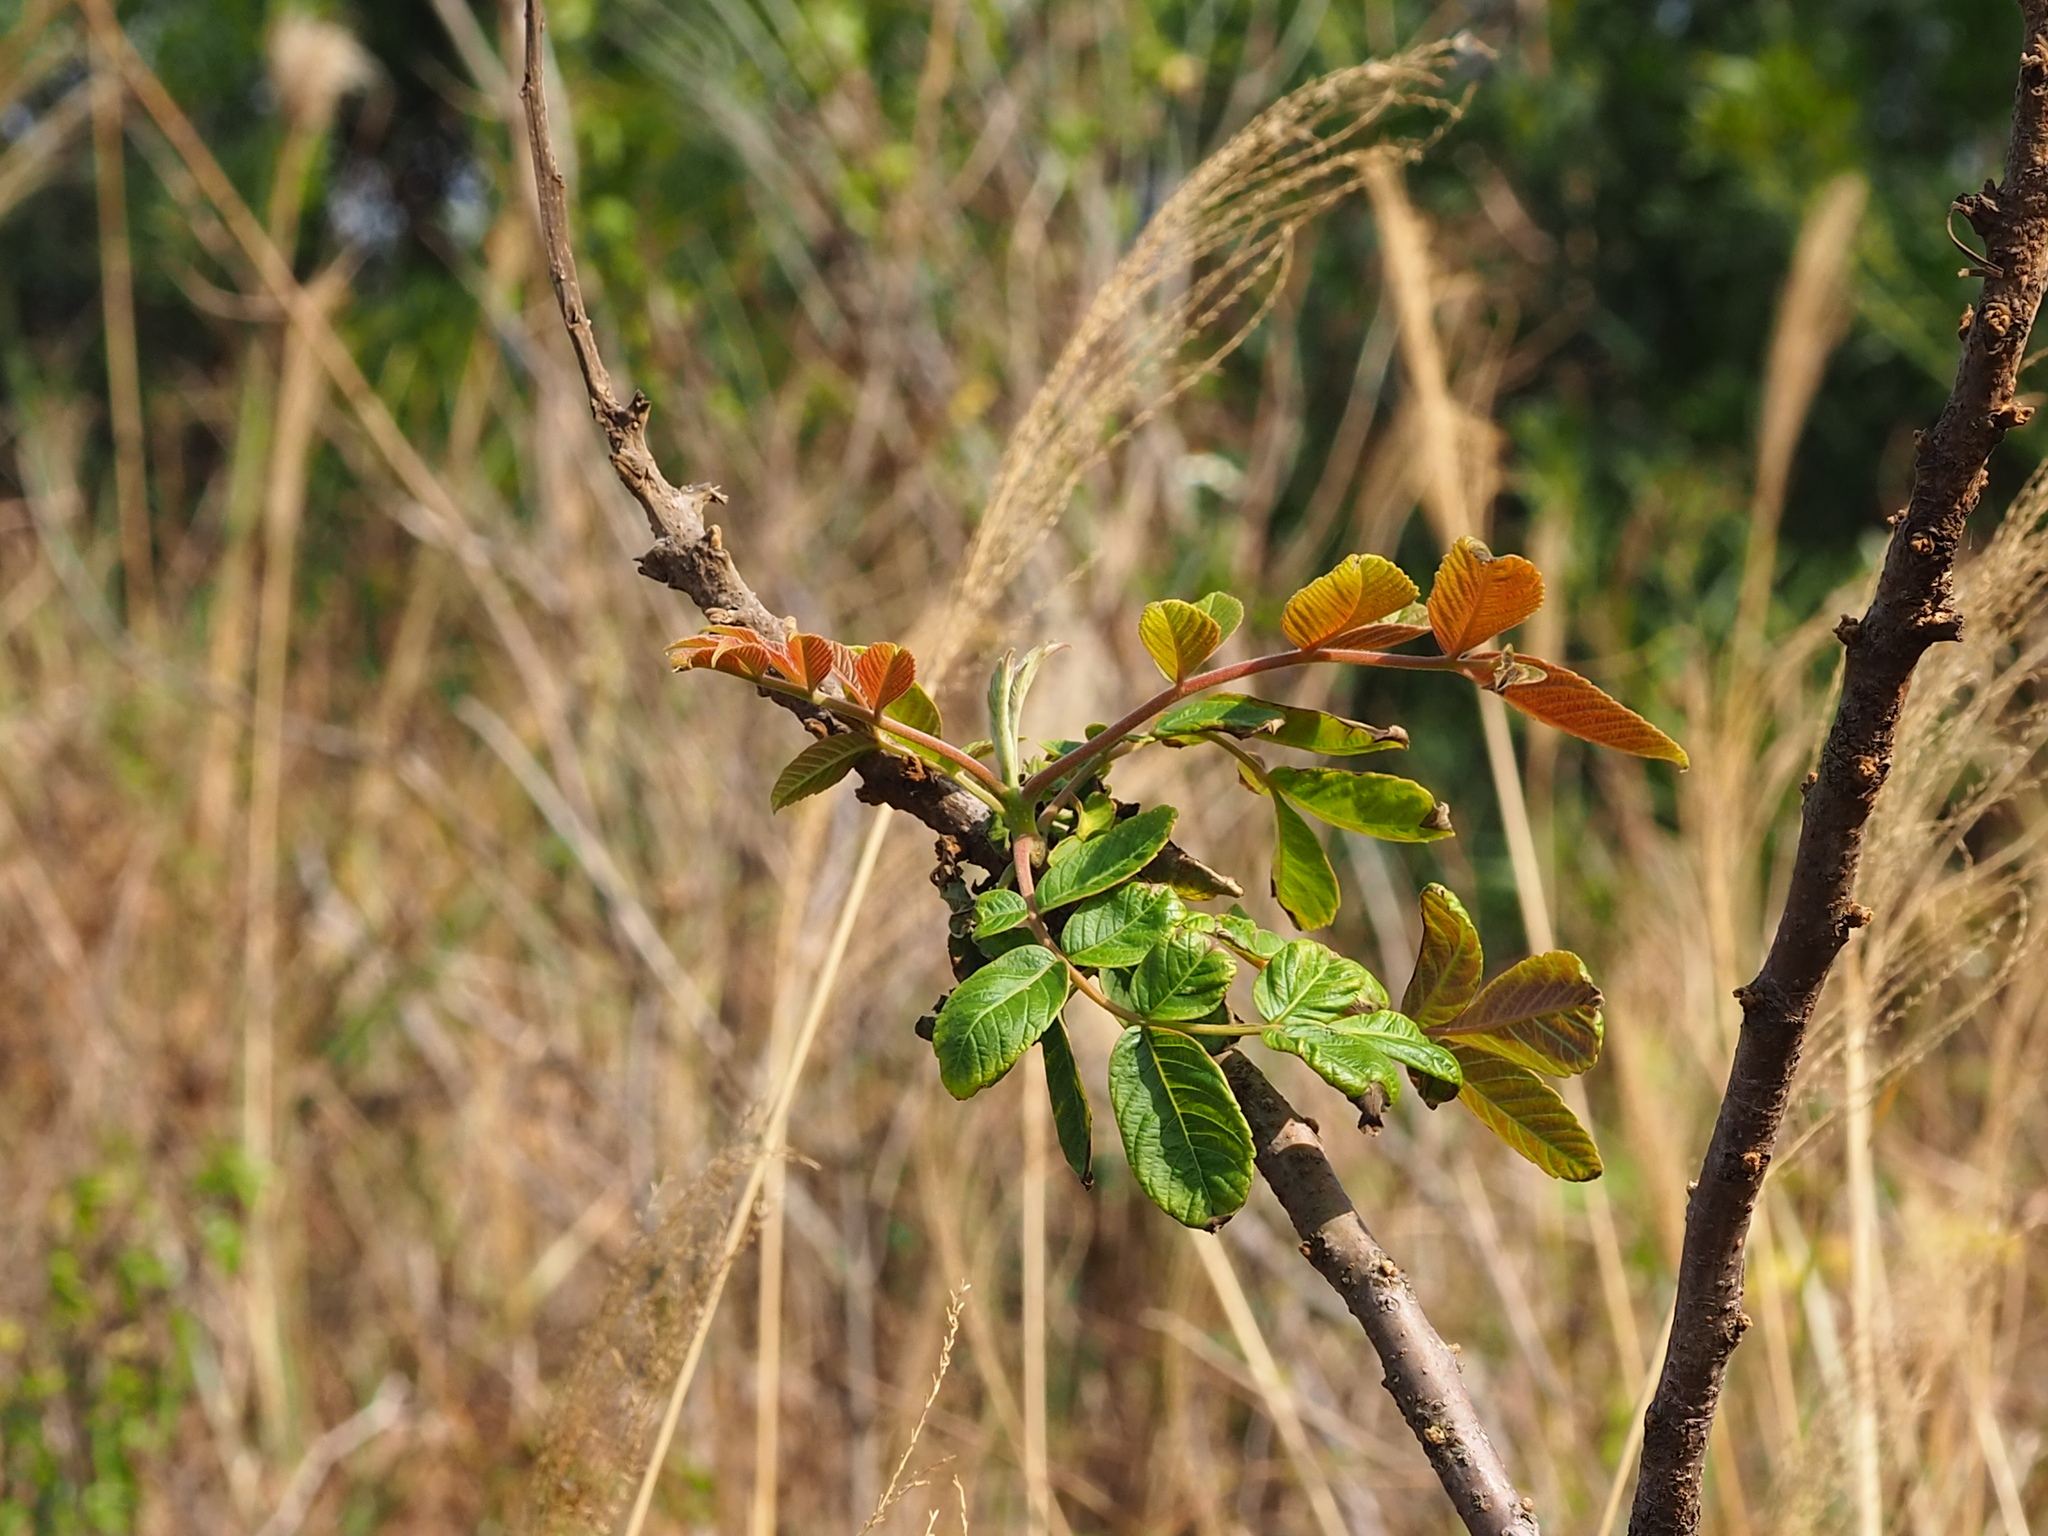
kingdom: Plantae
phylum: Tracheophyta
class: Magnoliopsida
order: Sapindales
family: Anacardiaceae
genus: Rhus
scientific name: Rhus chinensis
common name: Chinese gall
